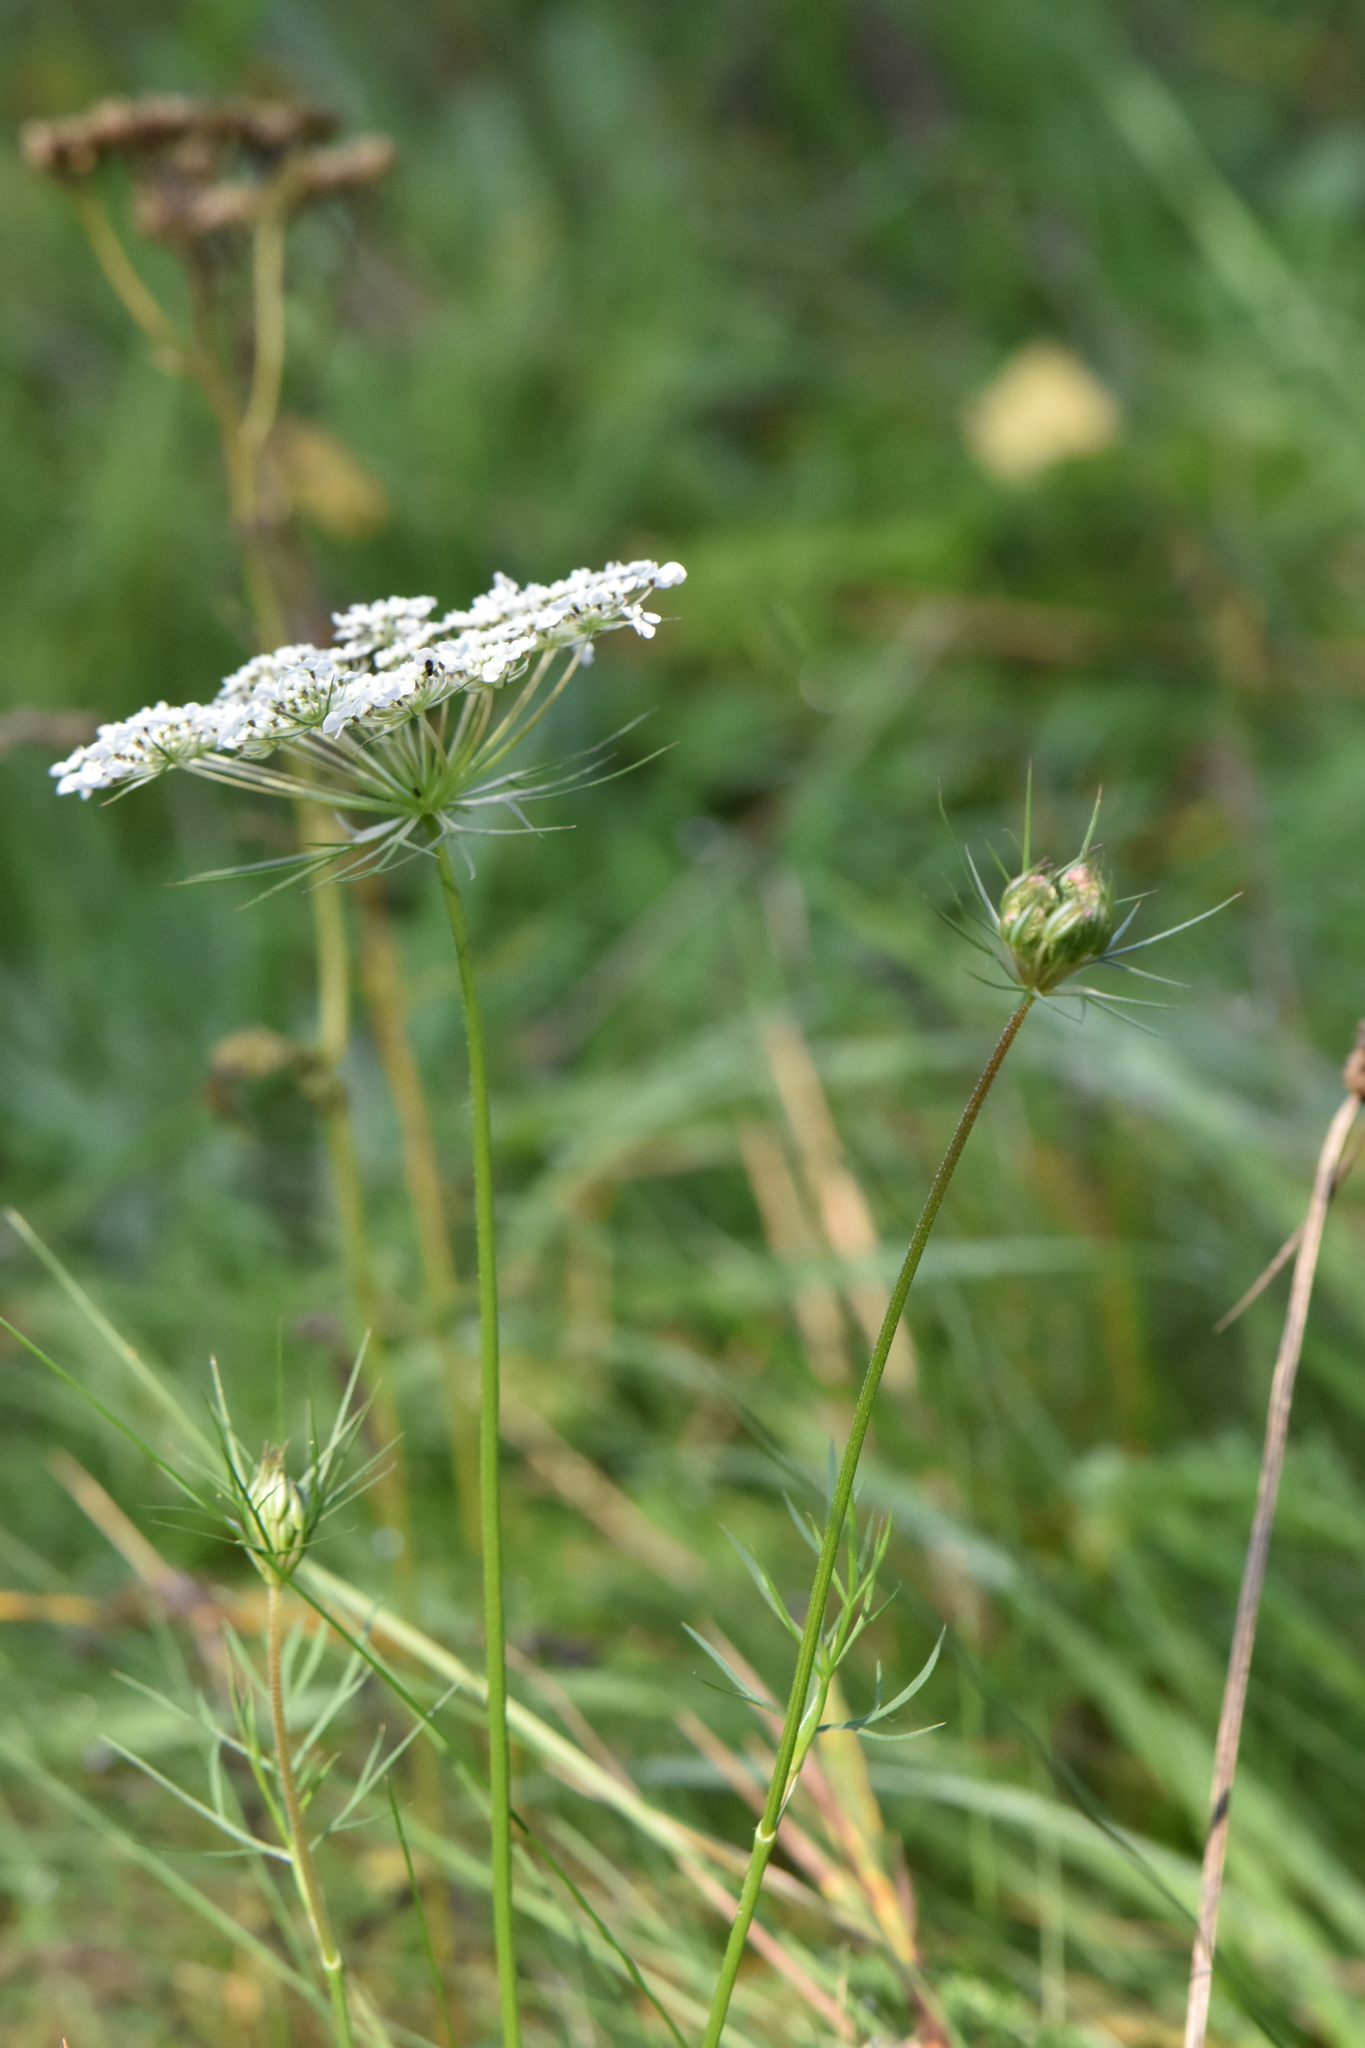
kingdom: Plantae
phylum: Tracheophyta
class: Magnoliopsida
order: Apiales
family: Apiaceae
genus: Daucus
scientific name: Daucus carota
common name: Wild carrot
